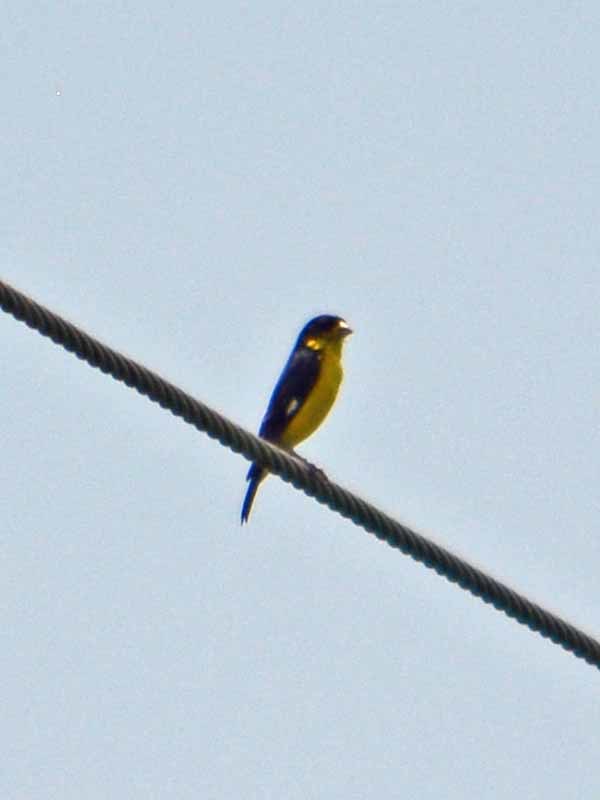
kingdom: Animalia
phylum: Chordata
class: Aves
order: Passeriformes
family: Fringillidae
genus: Spinus
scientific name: Spinus psaltria
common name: Lesser goldfinch
